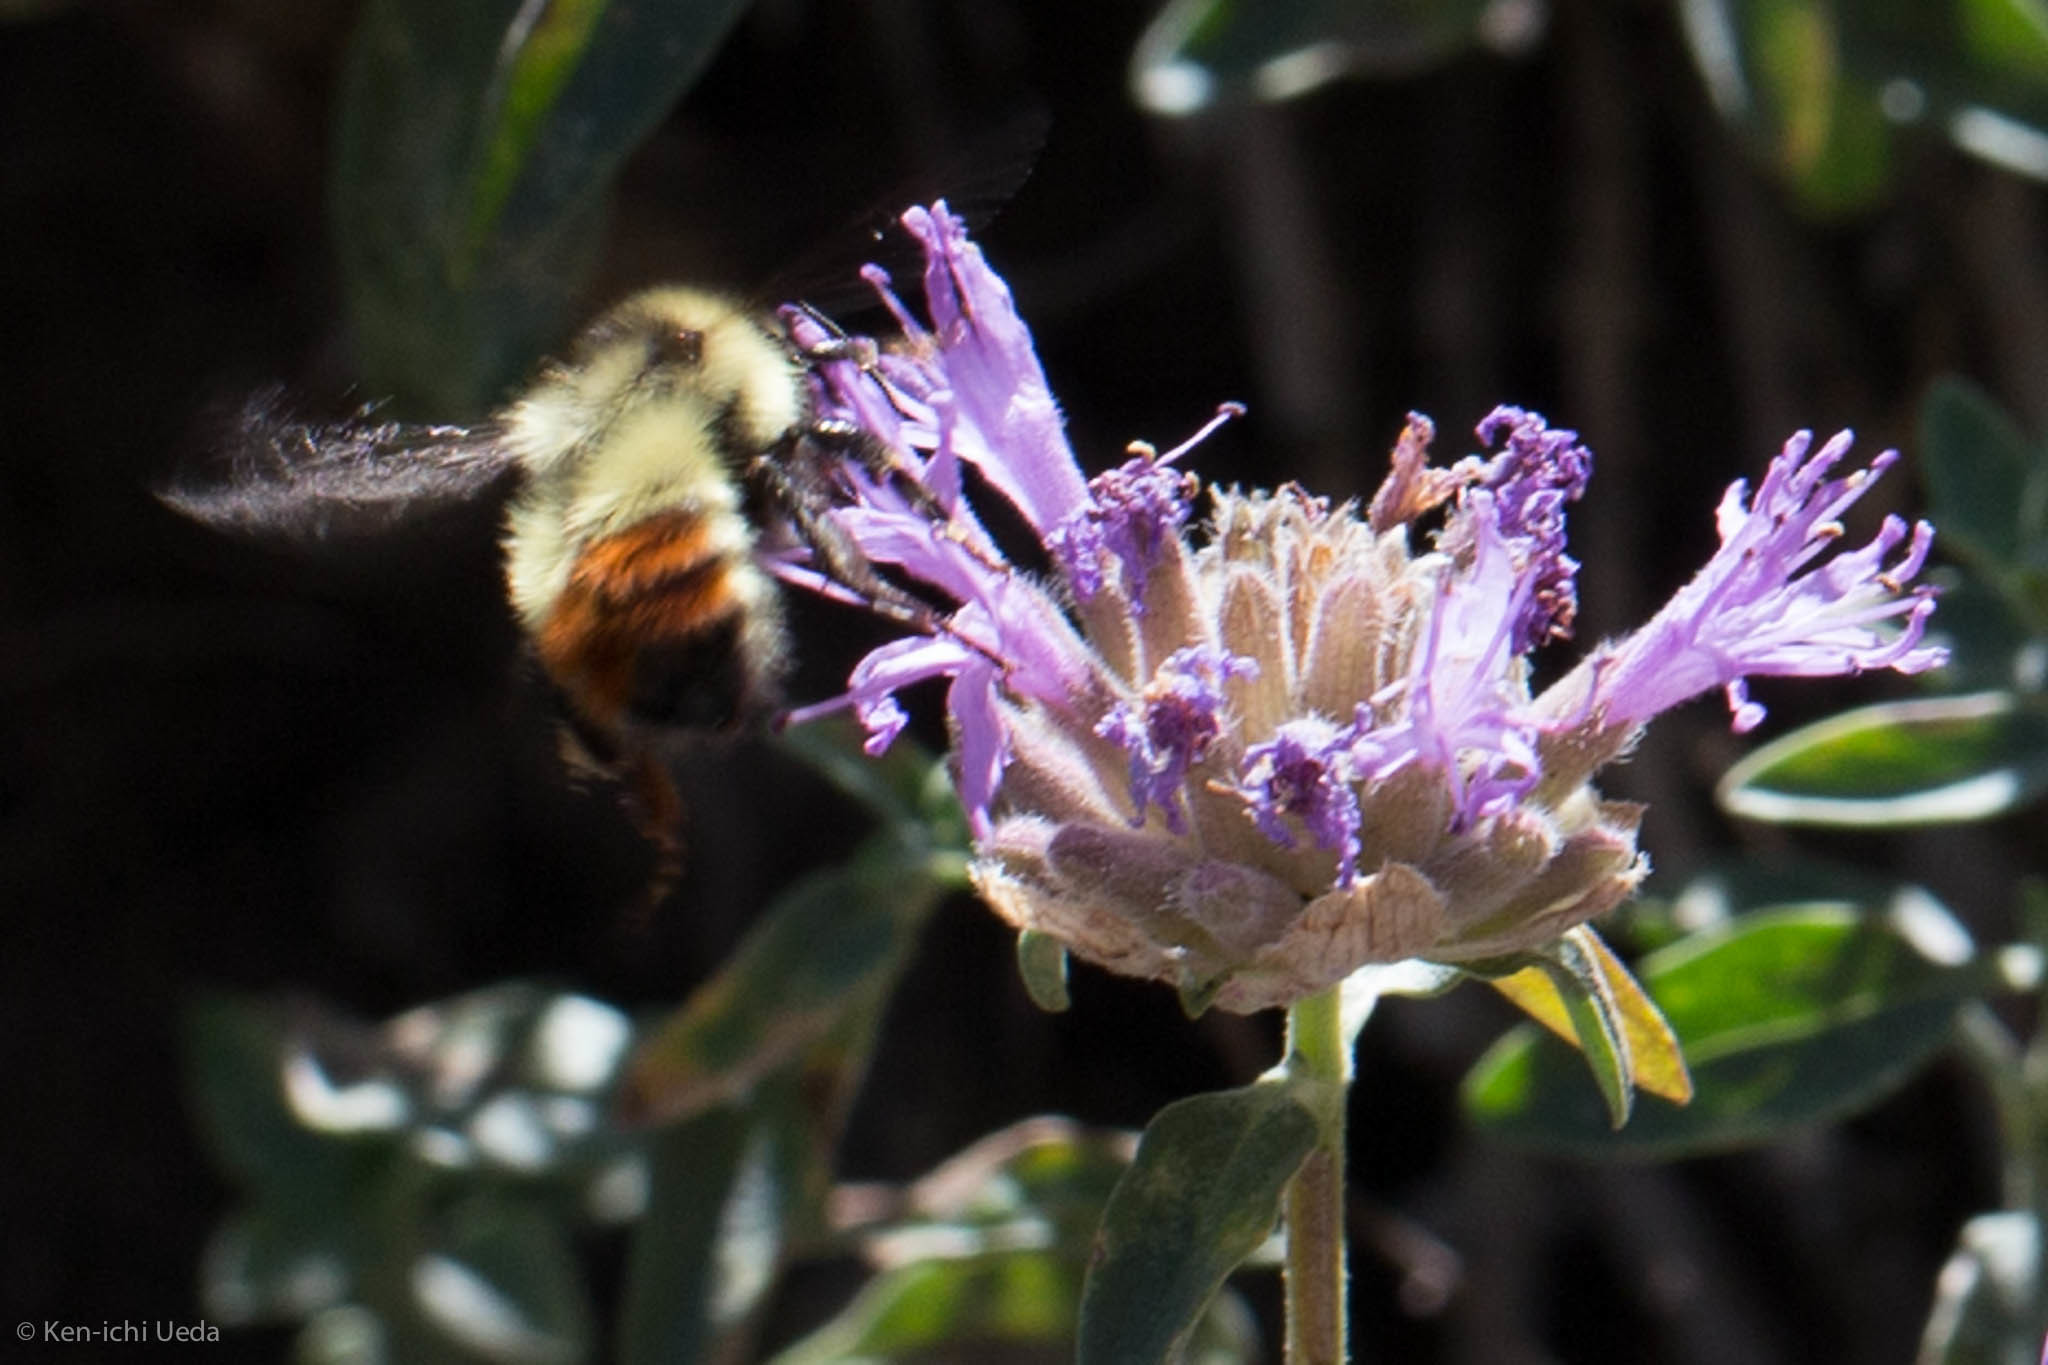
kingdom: Animalia
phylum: Arthropoda
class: Insecta
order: Hymenoptera
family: Apidae
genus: Pyrobombus
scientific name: Pyrobombus
